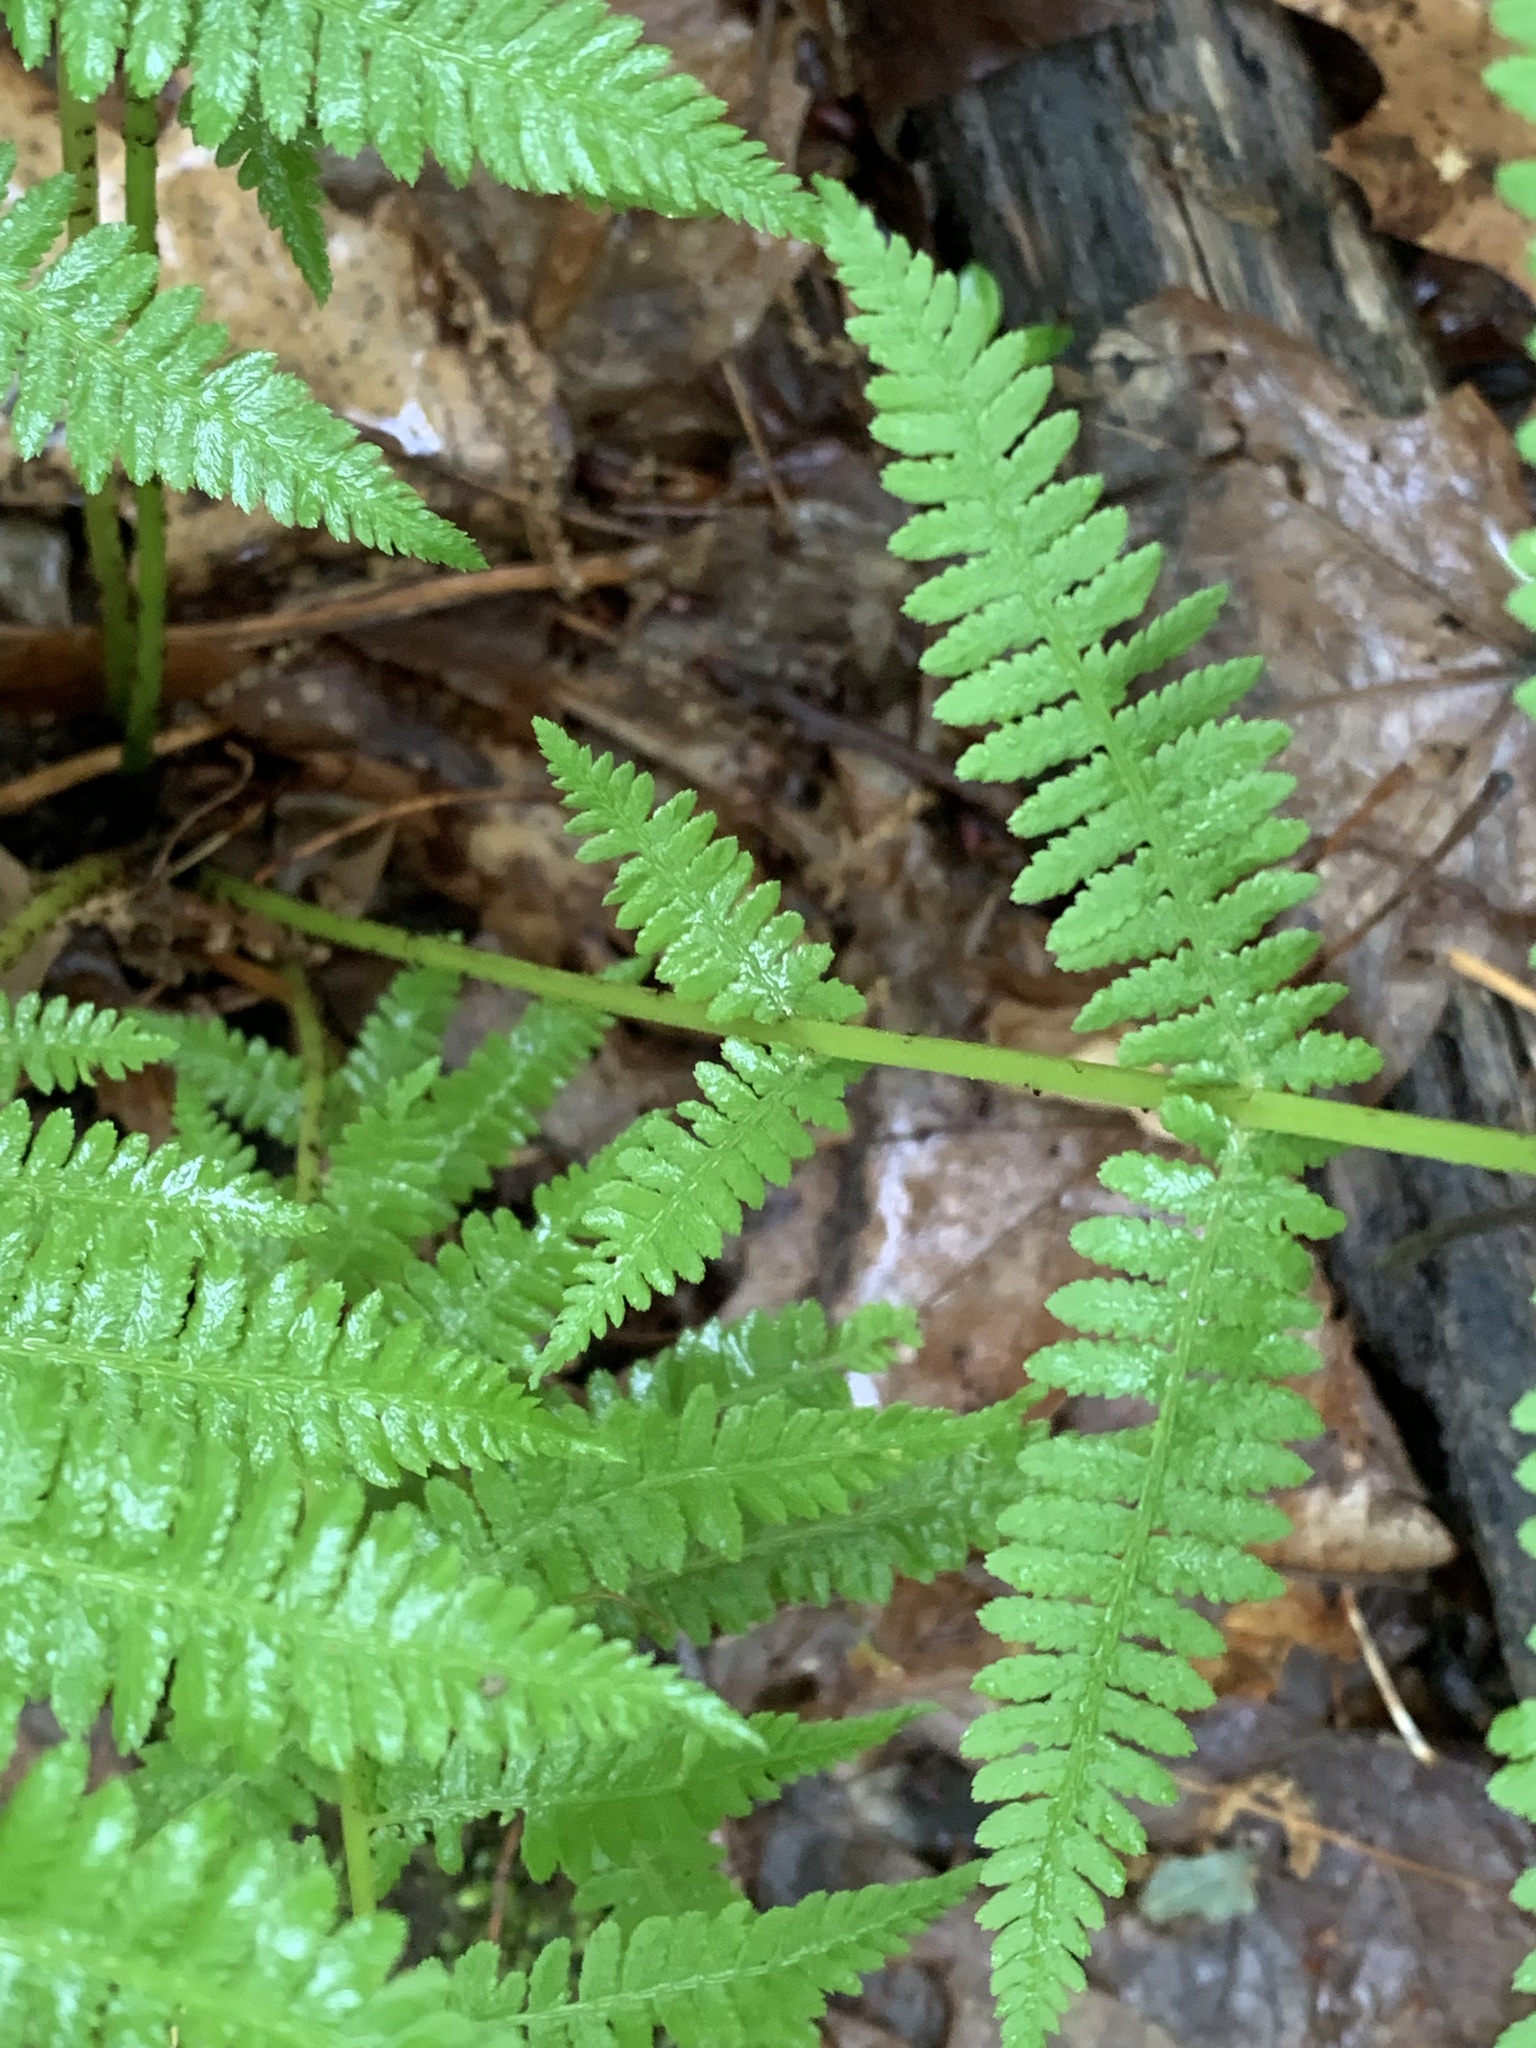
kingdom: Plantae
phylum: Tracheophyta
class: Polypodiopsida
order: Polypodiales
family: Athyriaceae
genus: Athyrium
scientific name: Athyrium angustum
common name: Northern lady fern
